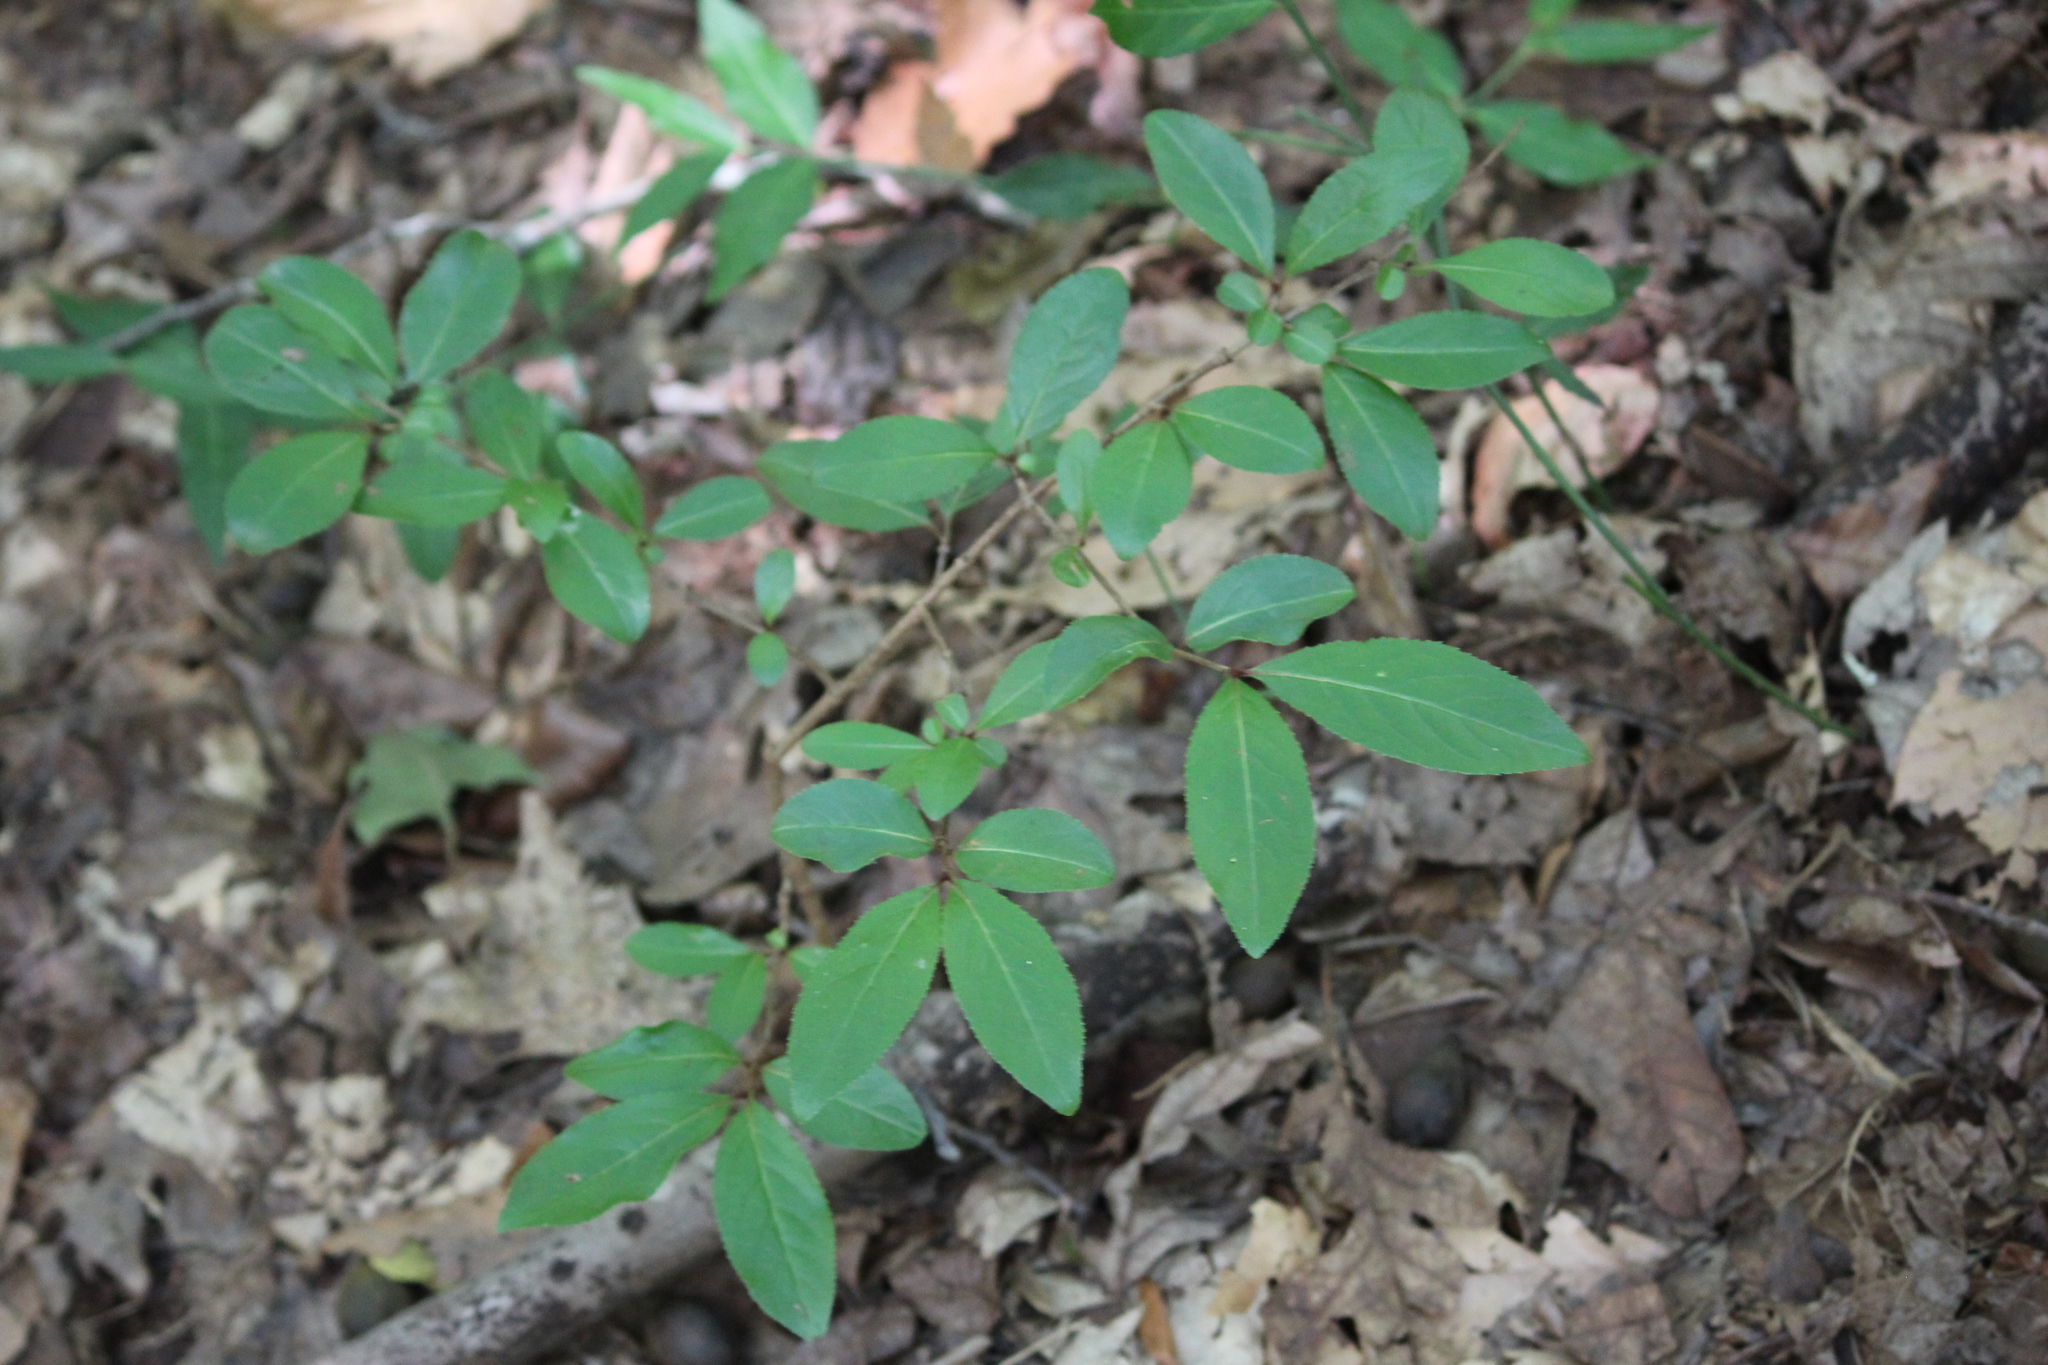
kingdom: Plantae
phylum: Tracheophyta
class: Magnoliopsida
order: Dipsacales
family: Viburnaceae
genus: Viburnum
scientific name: Viburnum prunifolium
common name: Black haw
